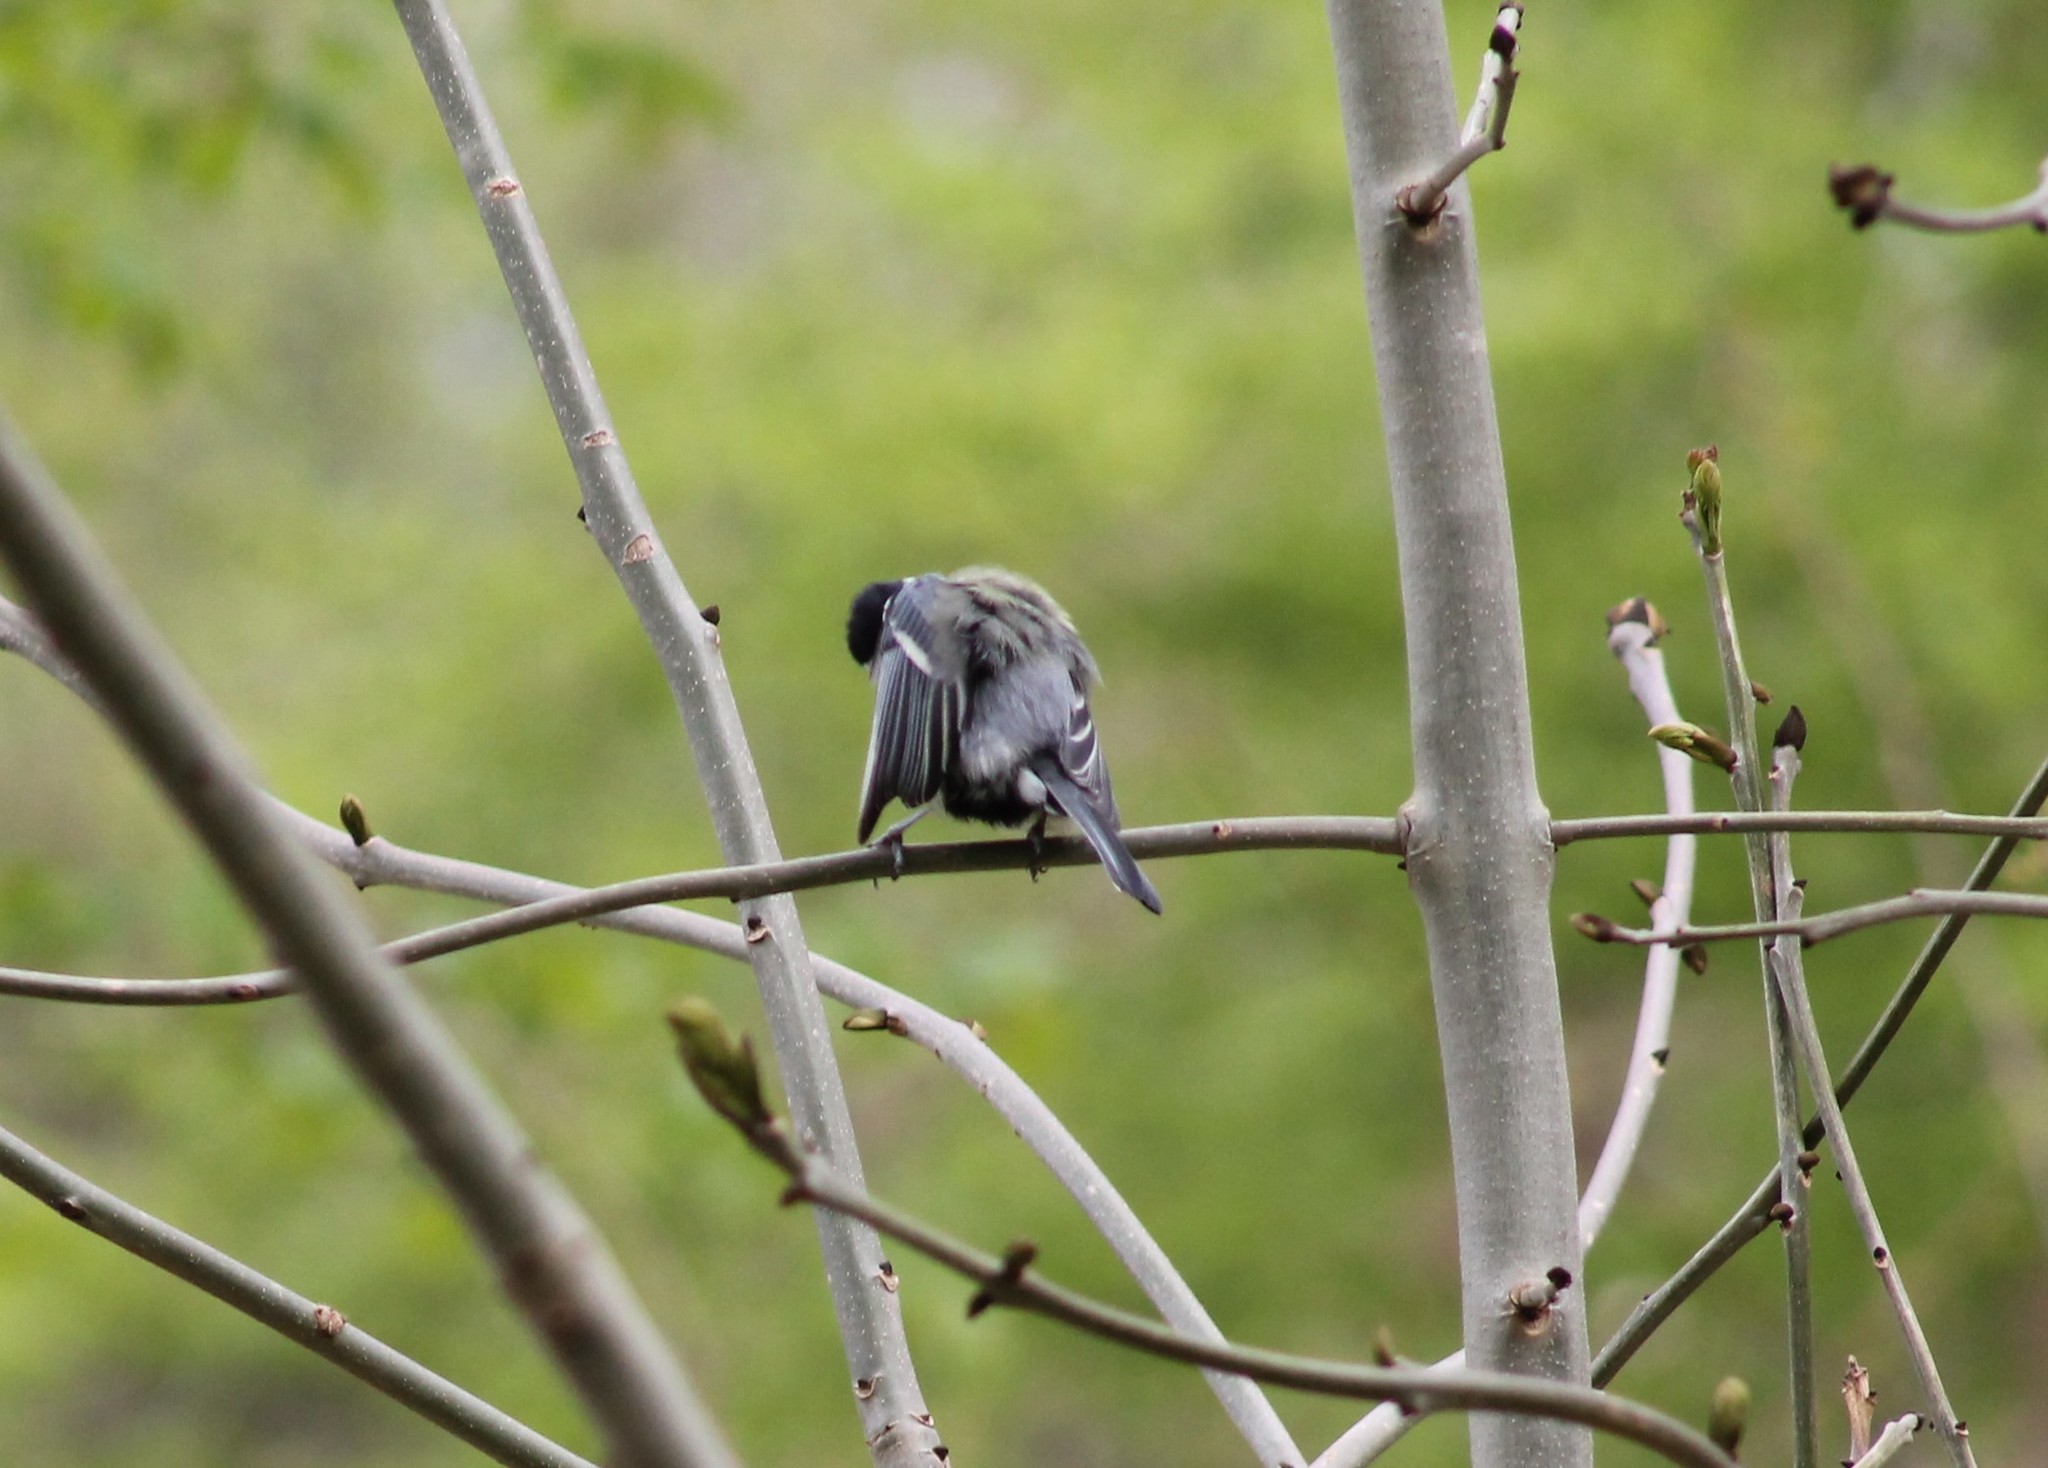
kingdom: Animalia
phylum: Chordata
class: Aves
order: Passeriformes
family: Paridae
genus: Parus
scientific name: Parus major
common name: Great tit
